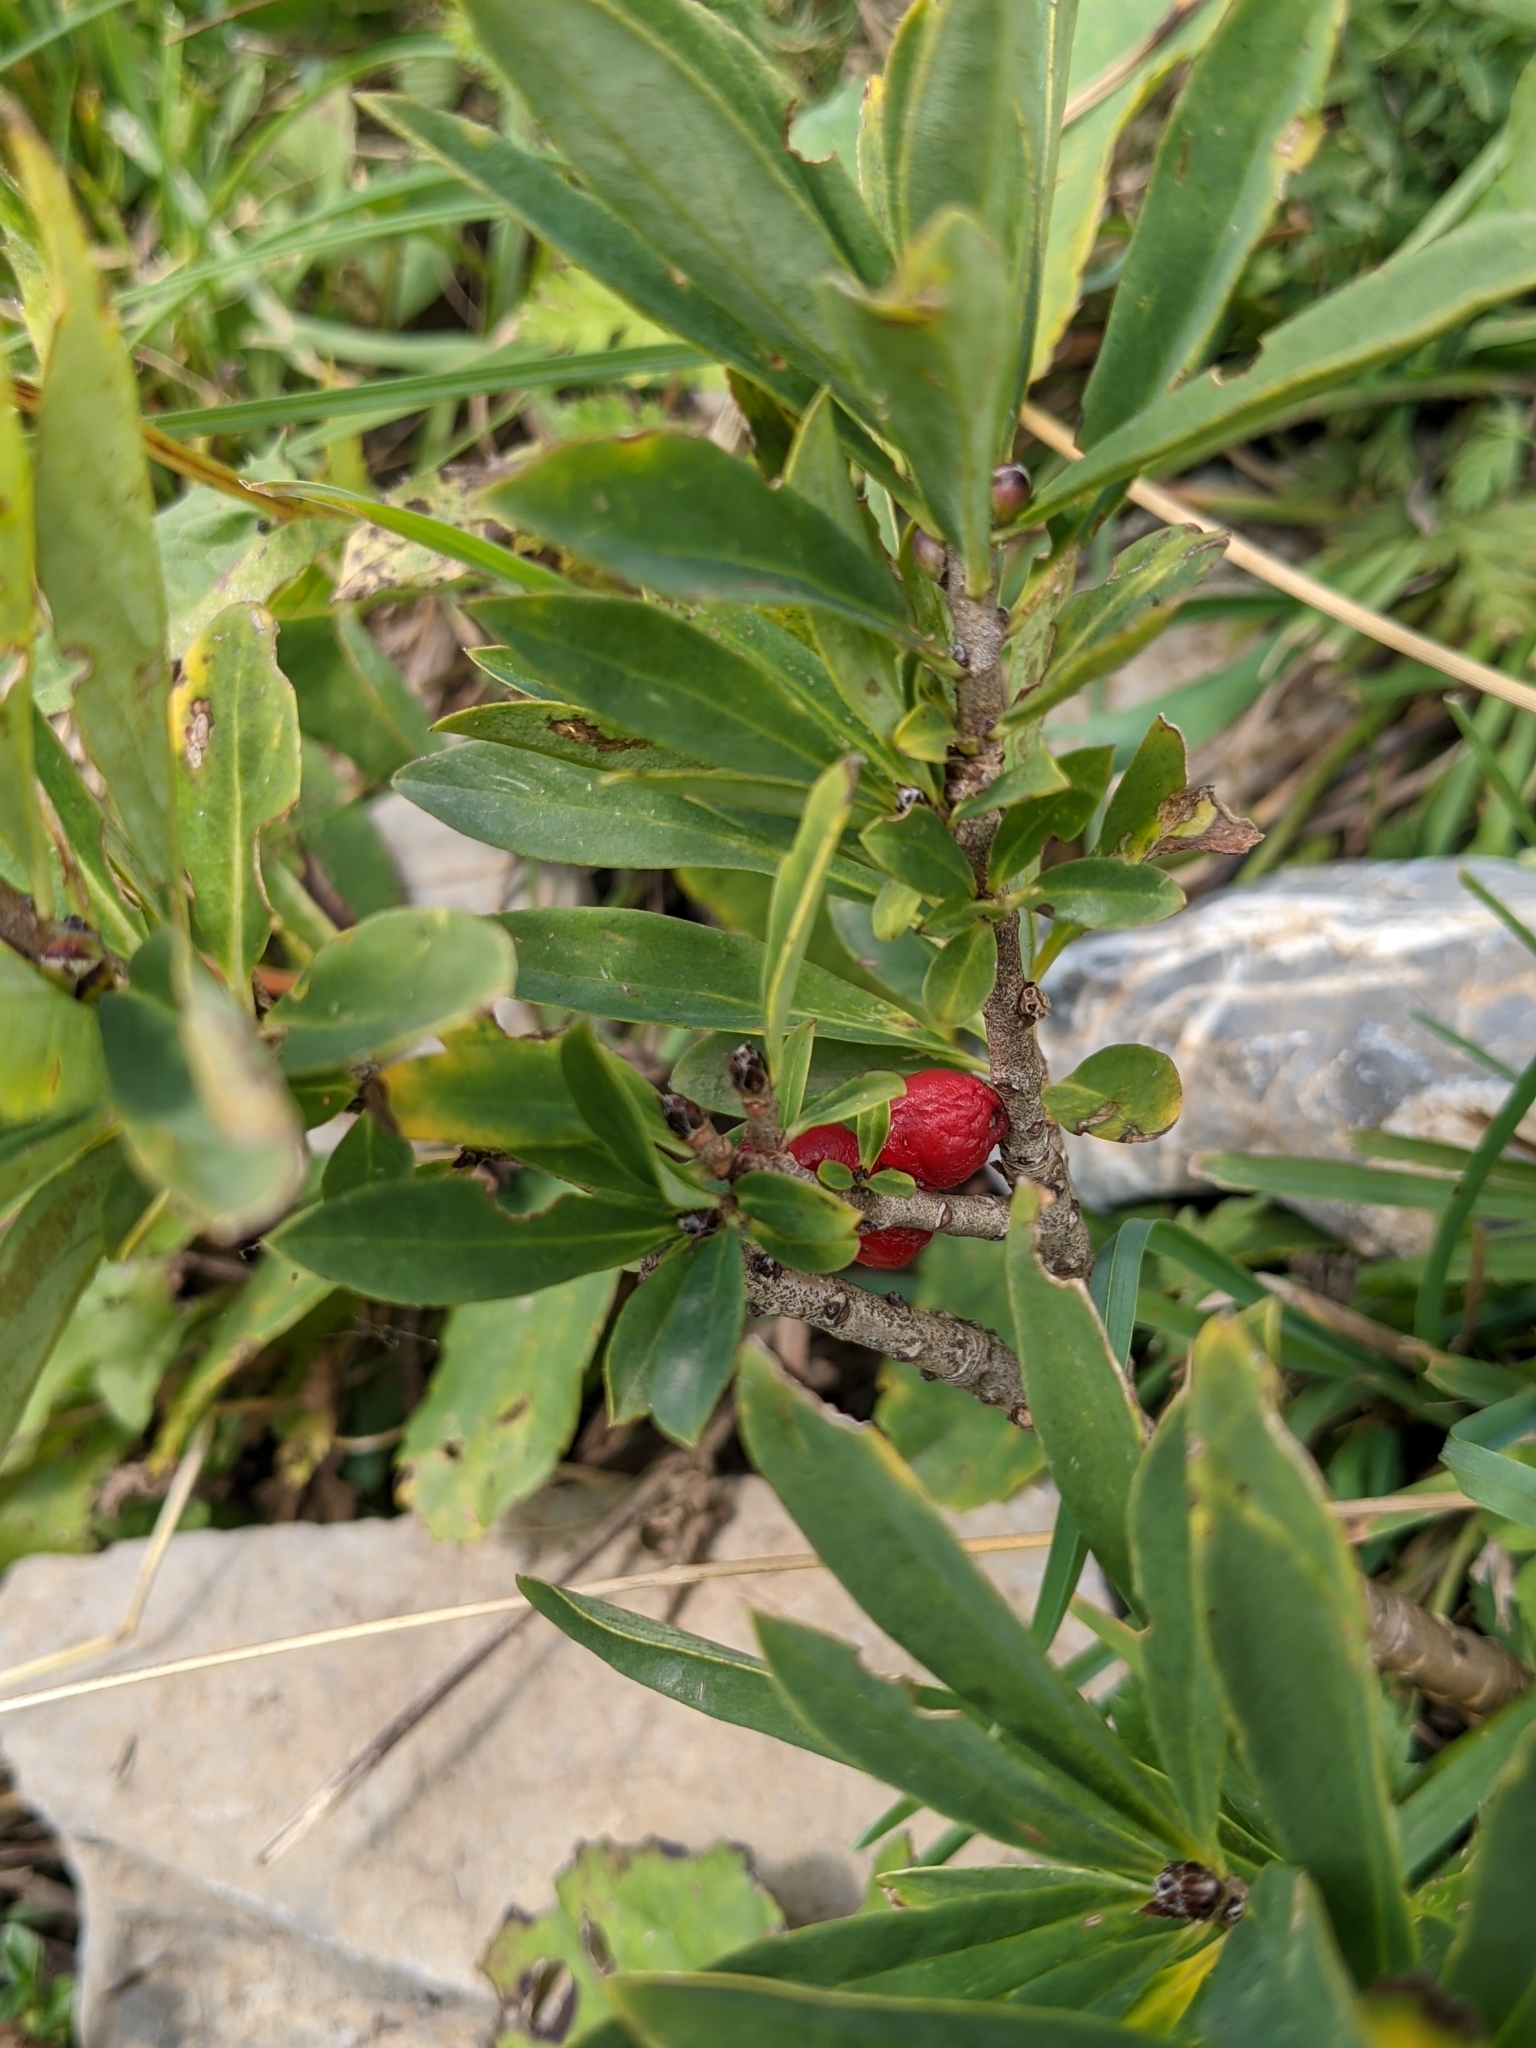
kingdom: Plantae
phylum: Tracheophyta
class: Magnoliopsida
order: Malvales
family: Thymelaeaceae
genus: Daphne
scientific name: Daphne mezereum
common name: Mezereon
